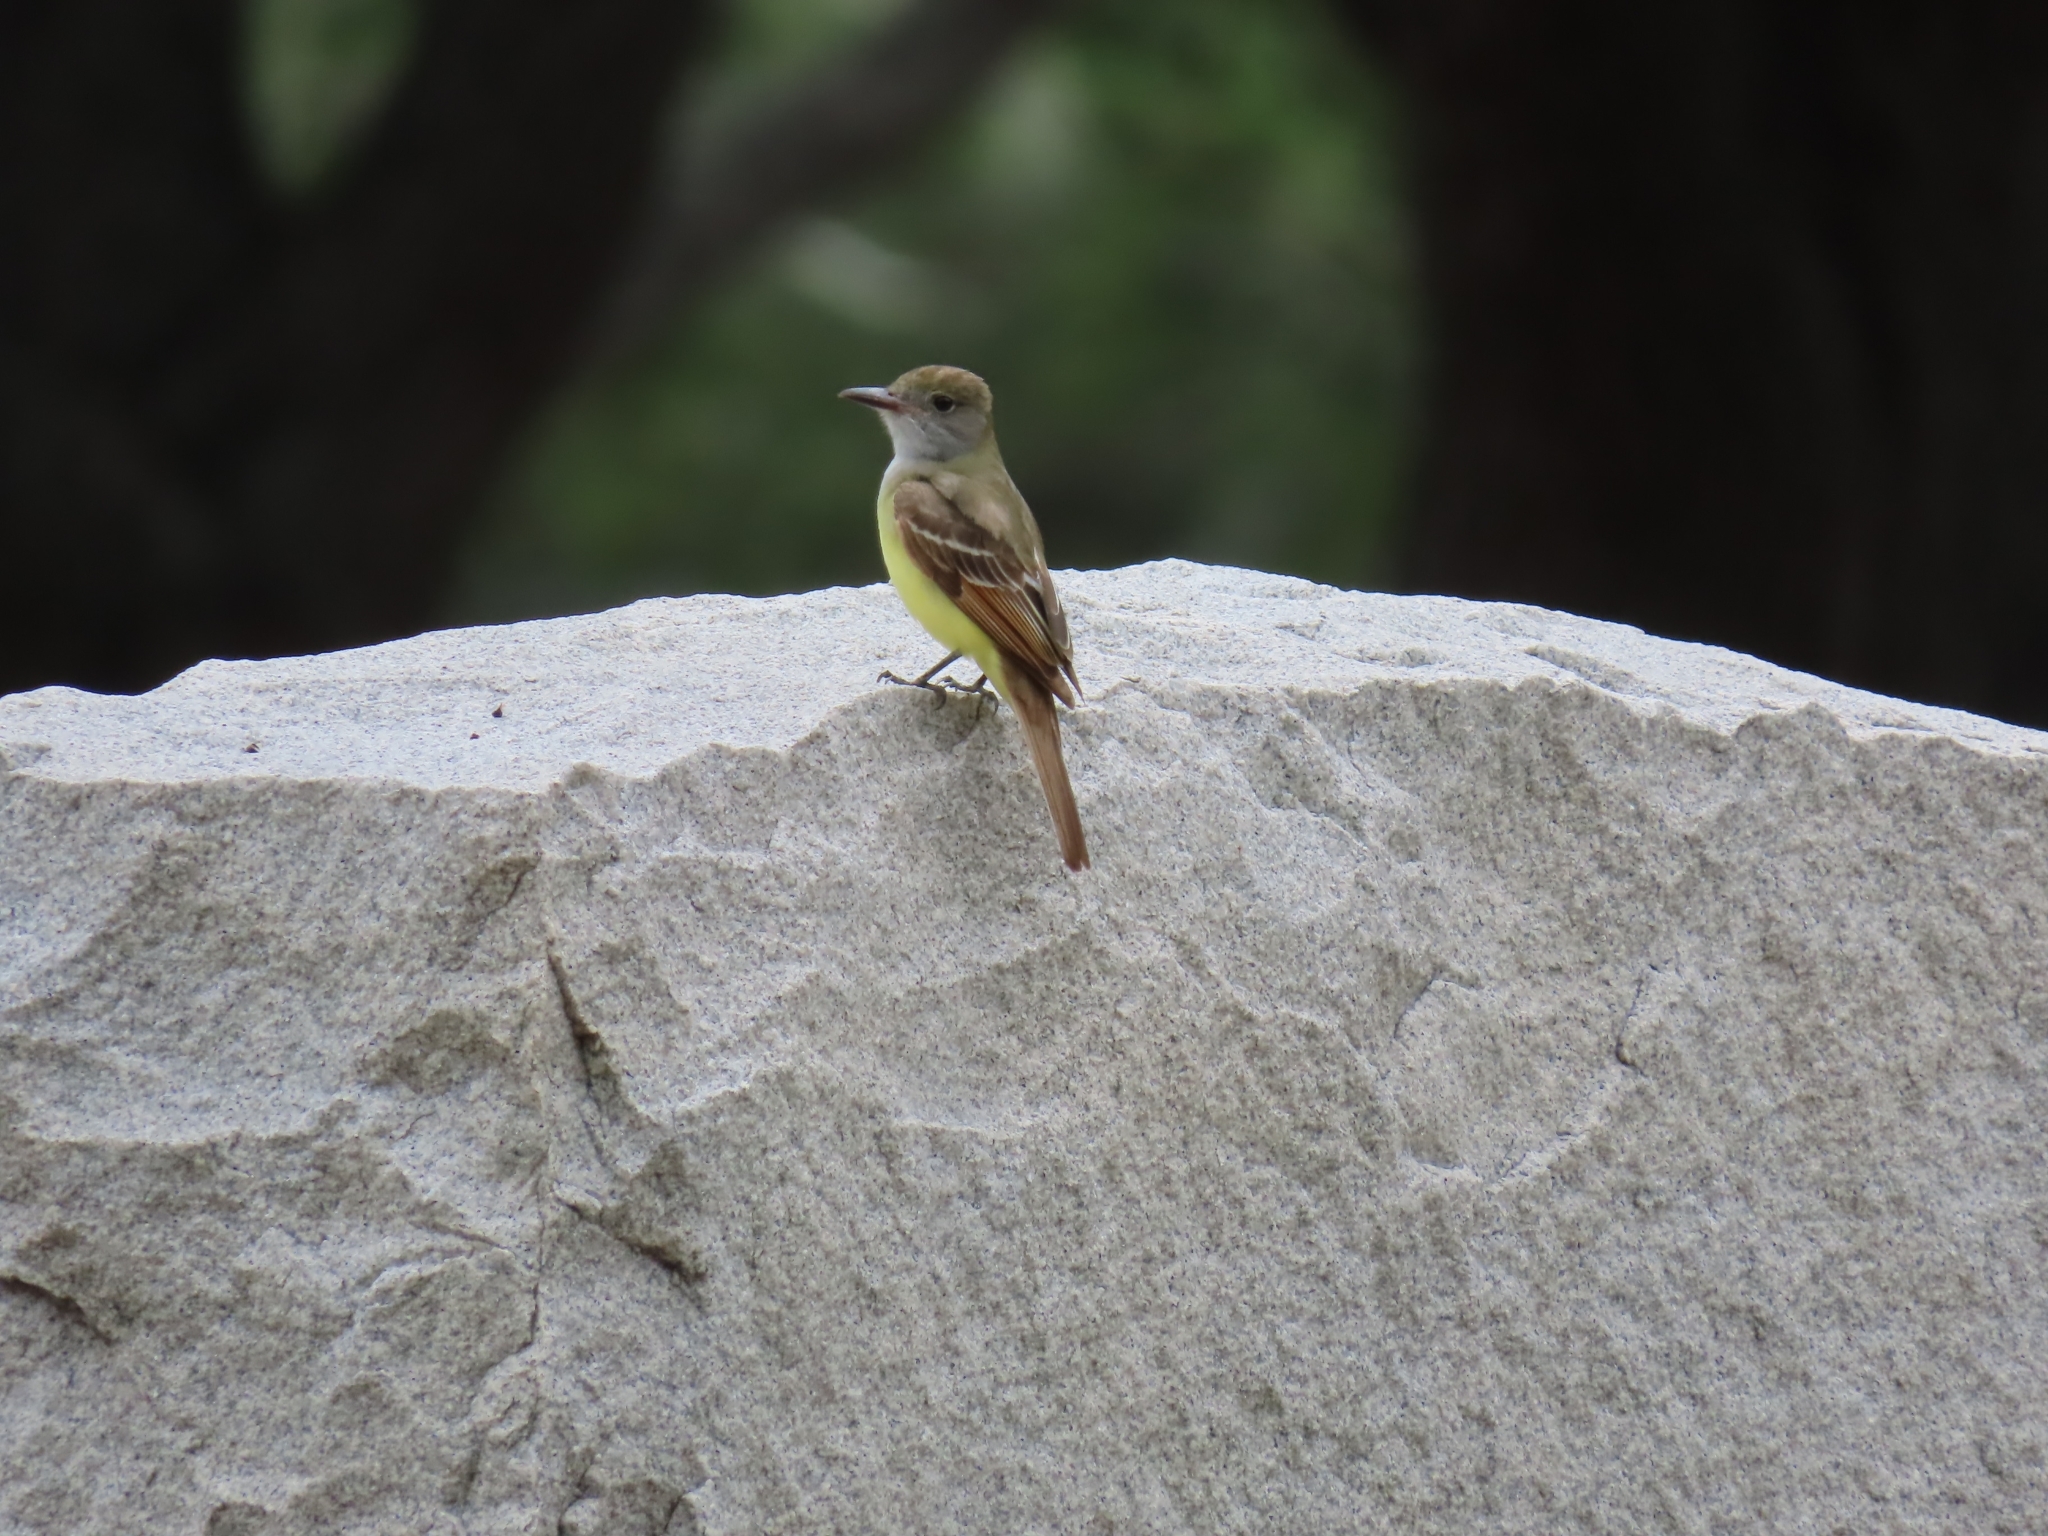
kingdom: Animalia
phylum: Chordata
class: Aves
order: Passeriformes
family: Tyrannidae
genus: Myiarchus
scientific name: Myiarchus crinitus
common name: Great crested flycatcher
